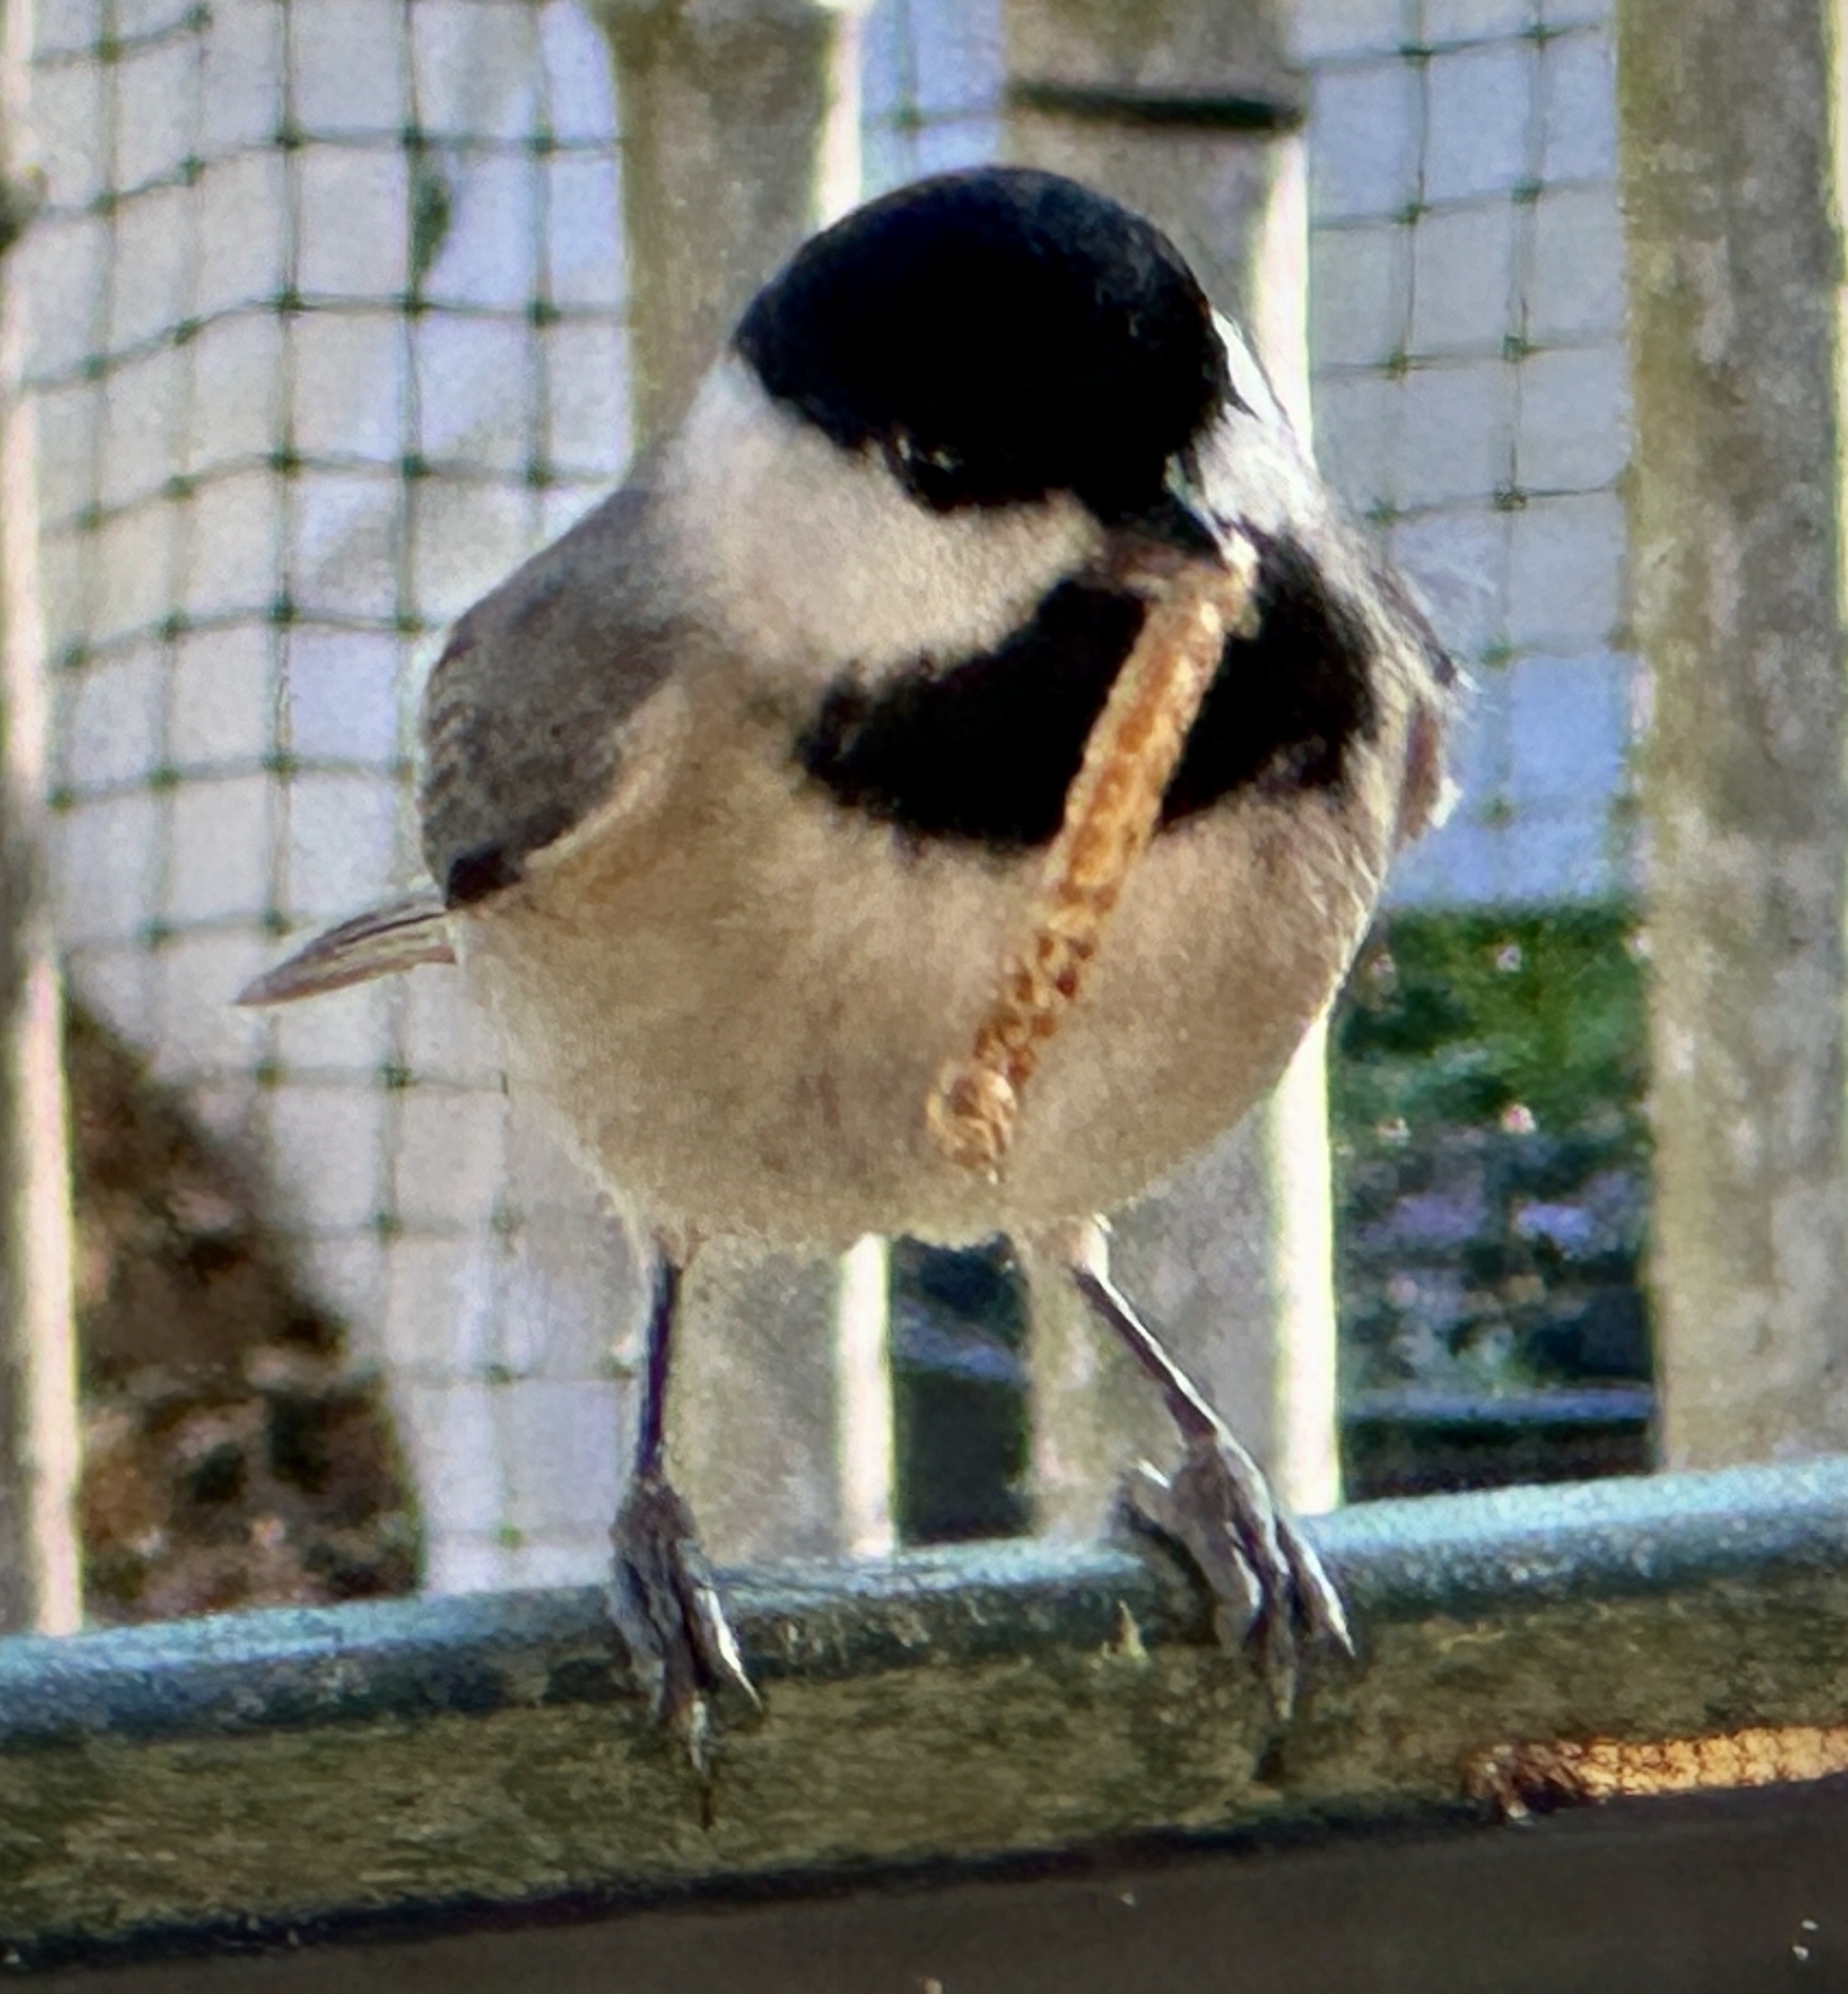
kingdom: Animalia
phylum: Chordata
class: Aves
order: Passeriformes
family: Paridae
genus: Poecile
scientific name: Poecile carolinensis
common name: Carolina chickadee
